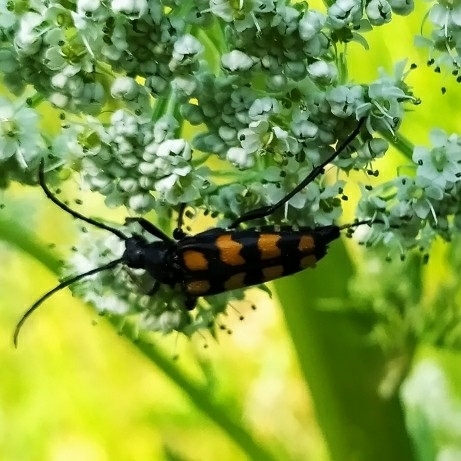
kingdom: Animalia
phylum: Arthropoda
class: Insecta
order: Coleoptera
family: Cerambycidae
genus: Leptura
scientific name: Leptura quadrifasciata
